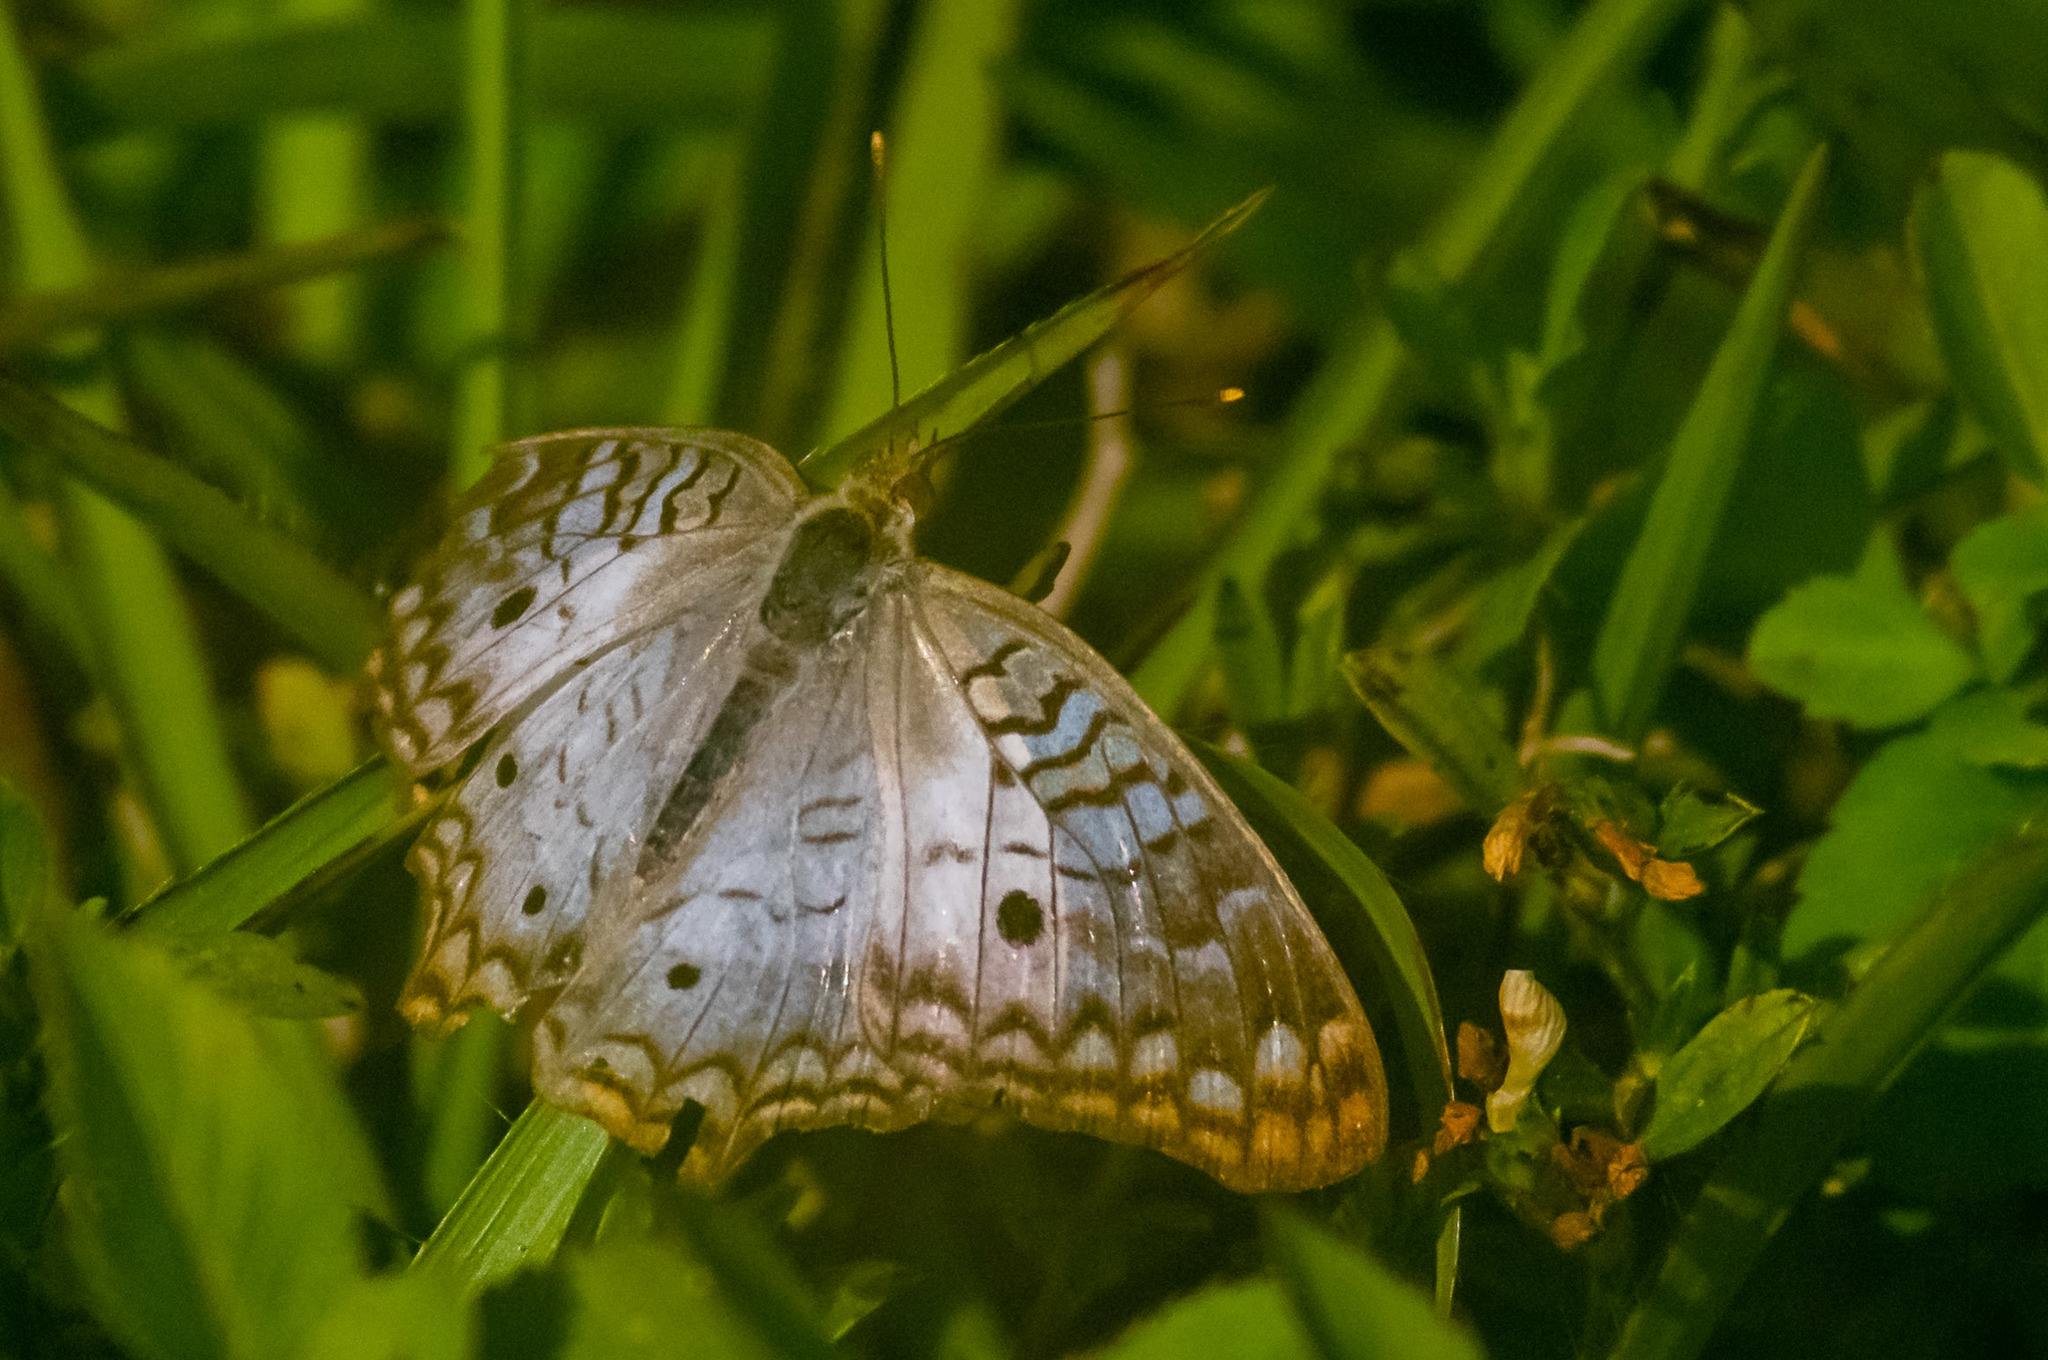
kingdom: Animalia
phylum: Arthropoda
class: Insecta
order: Lepidoptera
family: Nymphalidae
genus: Anartia
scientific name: Anartia jatrophae
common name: White peacock
